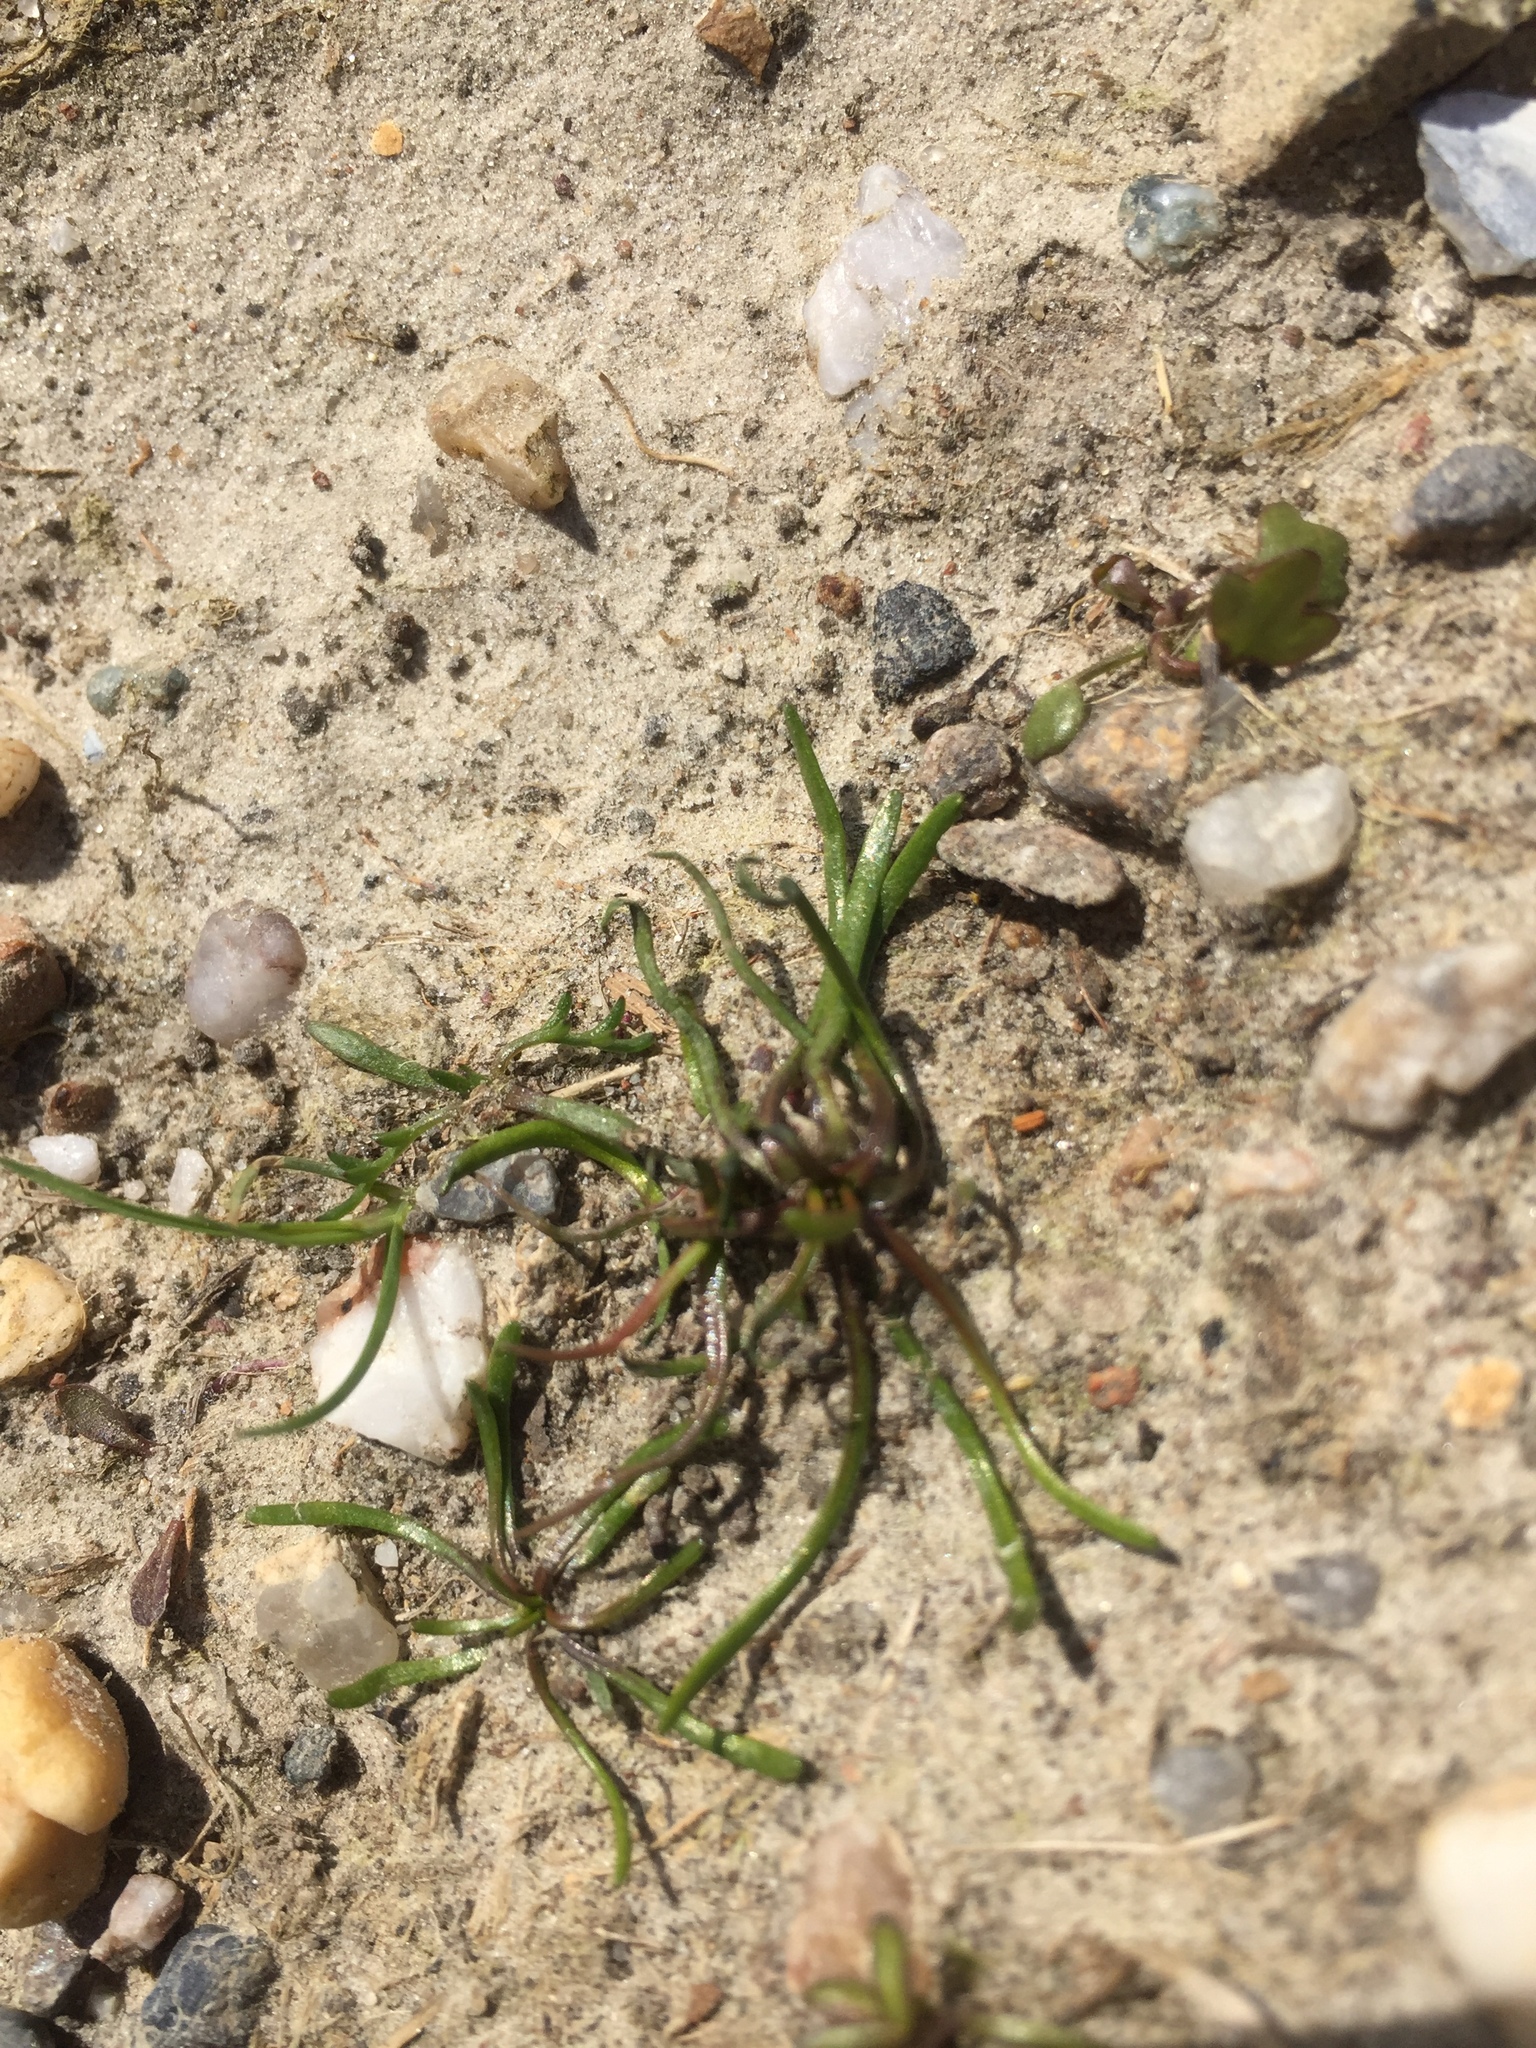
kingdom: Plantae
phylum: Tracheophyta
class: Magnoliopsida
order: Ranunculales
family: Ranunculaceae
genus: Myosurus
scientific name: Myosurus minimus
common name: Mousetail
